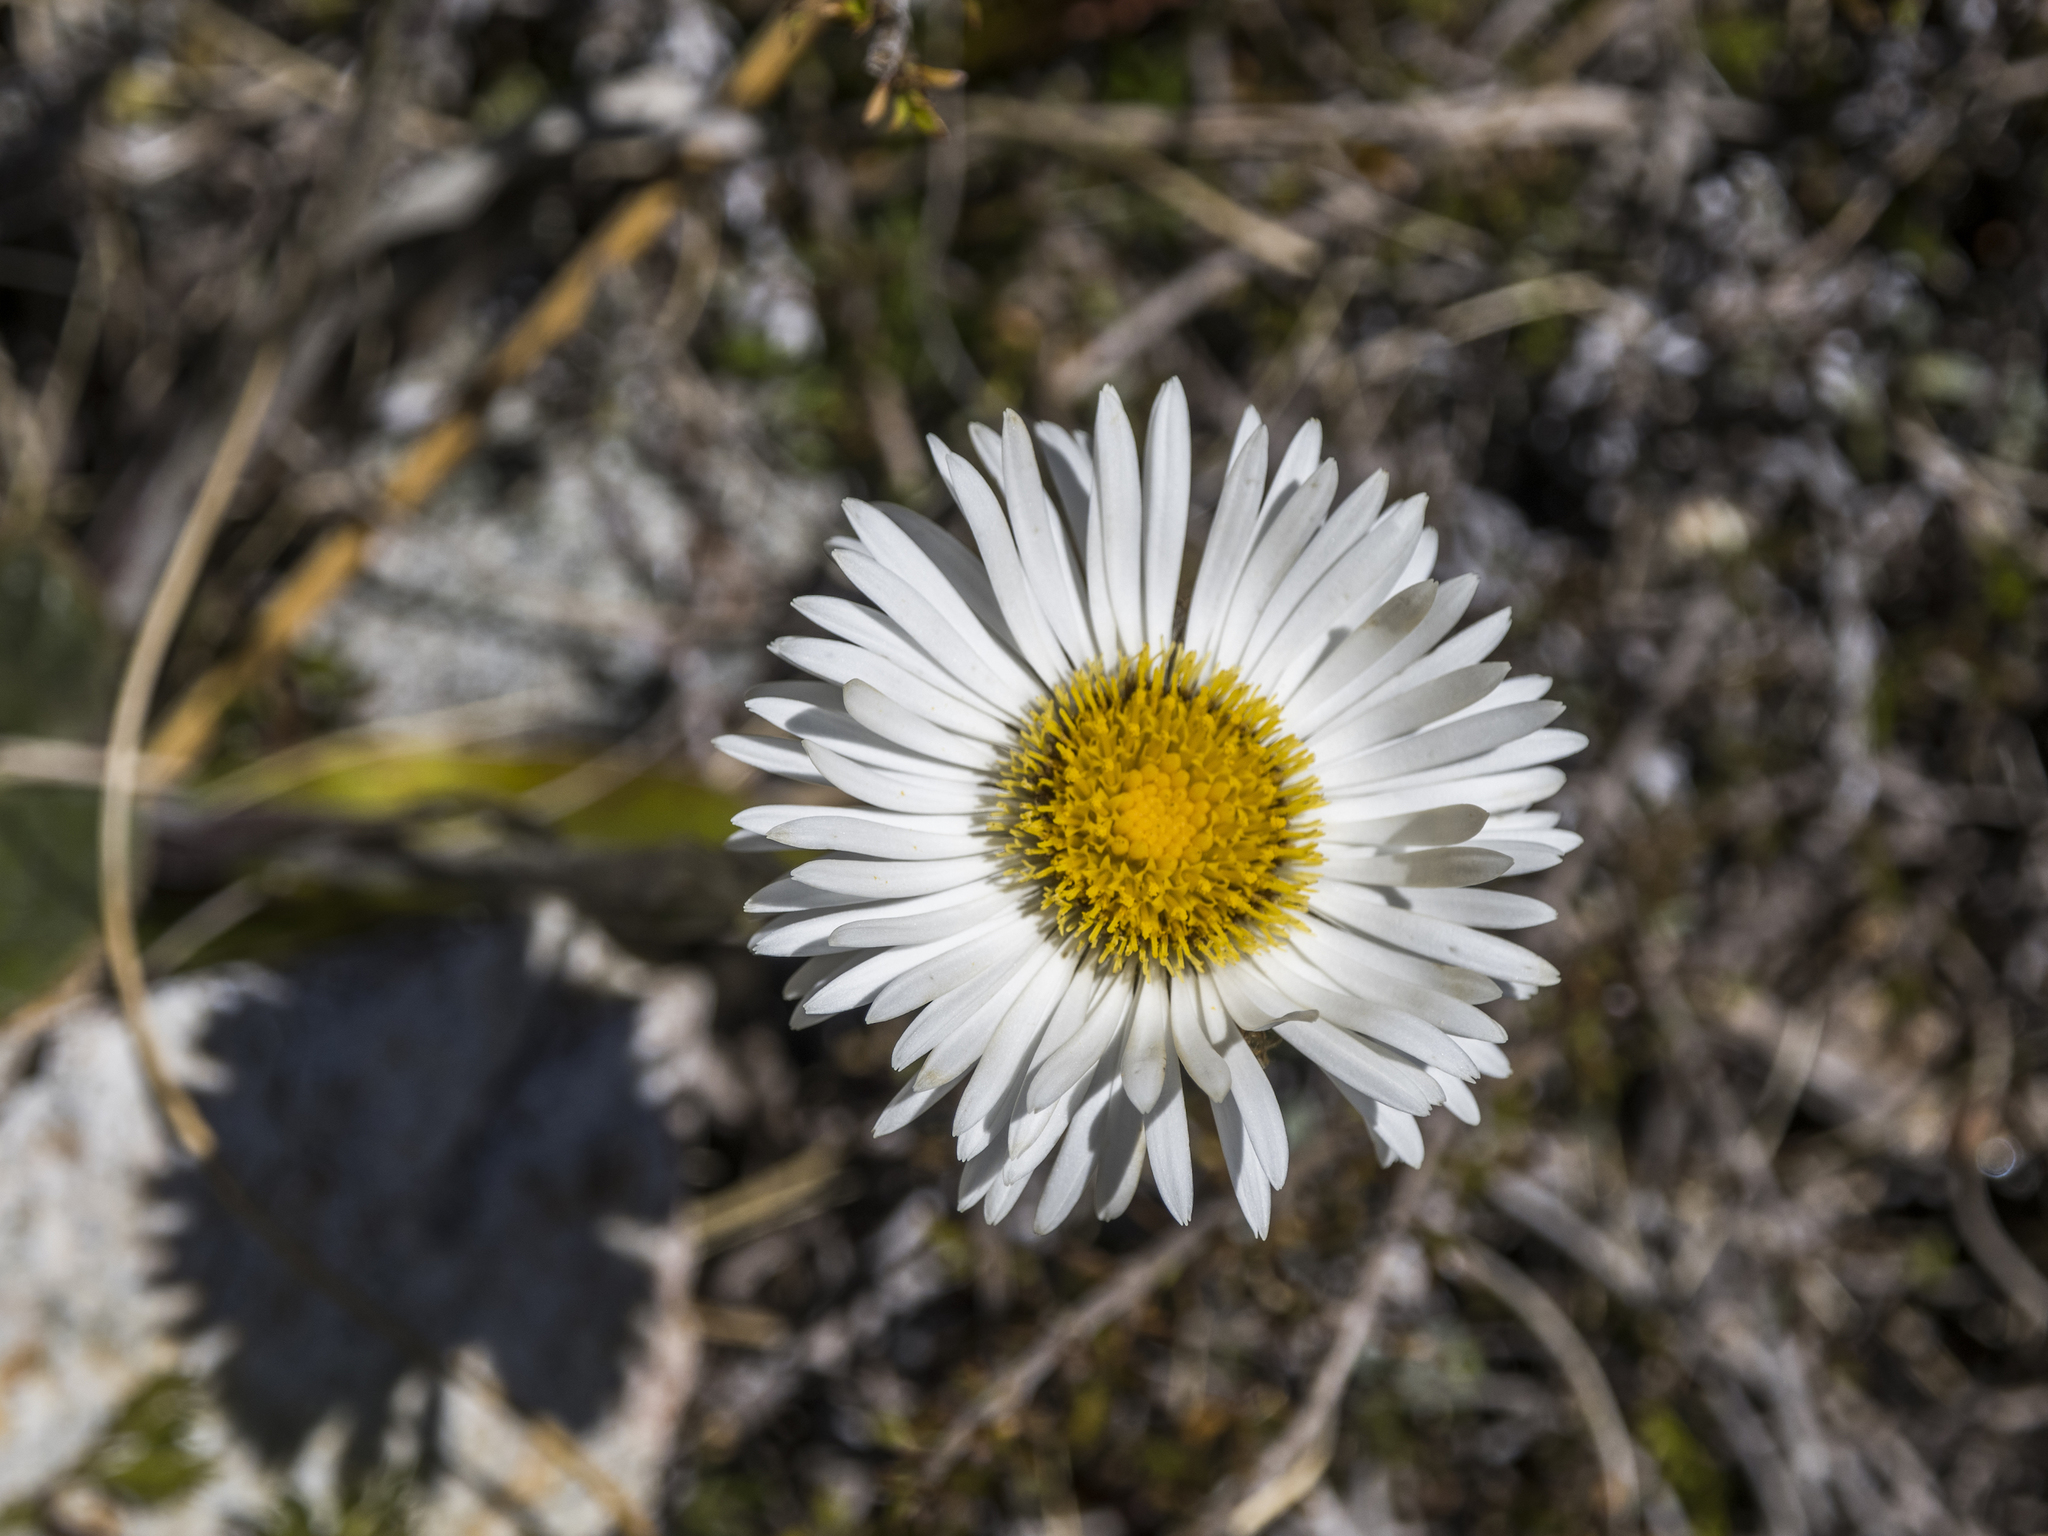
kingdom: Plantae
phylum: Tracheophyta
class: Magnoliopsida
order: Asterales
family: Asteraceae
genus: Celmisia
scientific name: Celmisia verbascifolia
